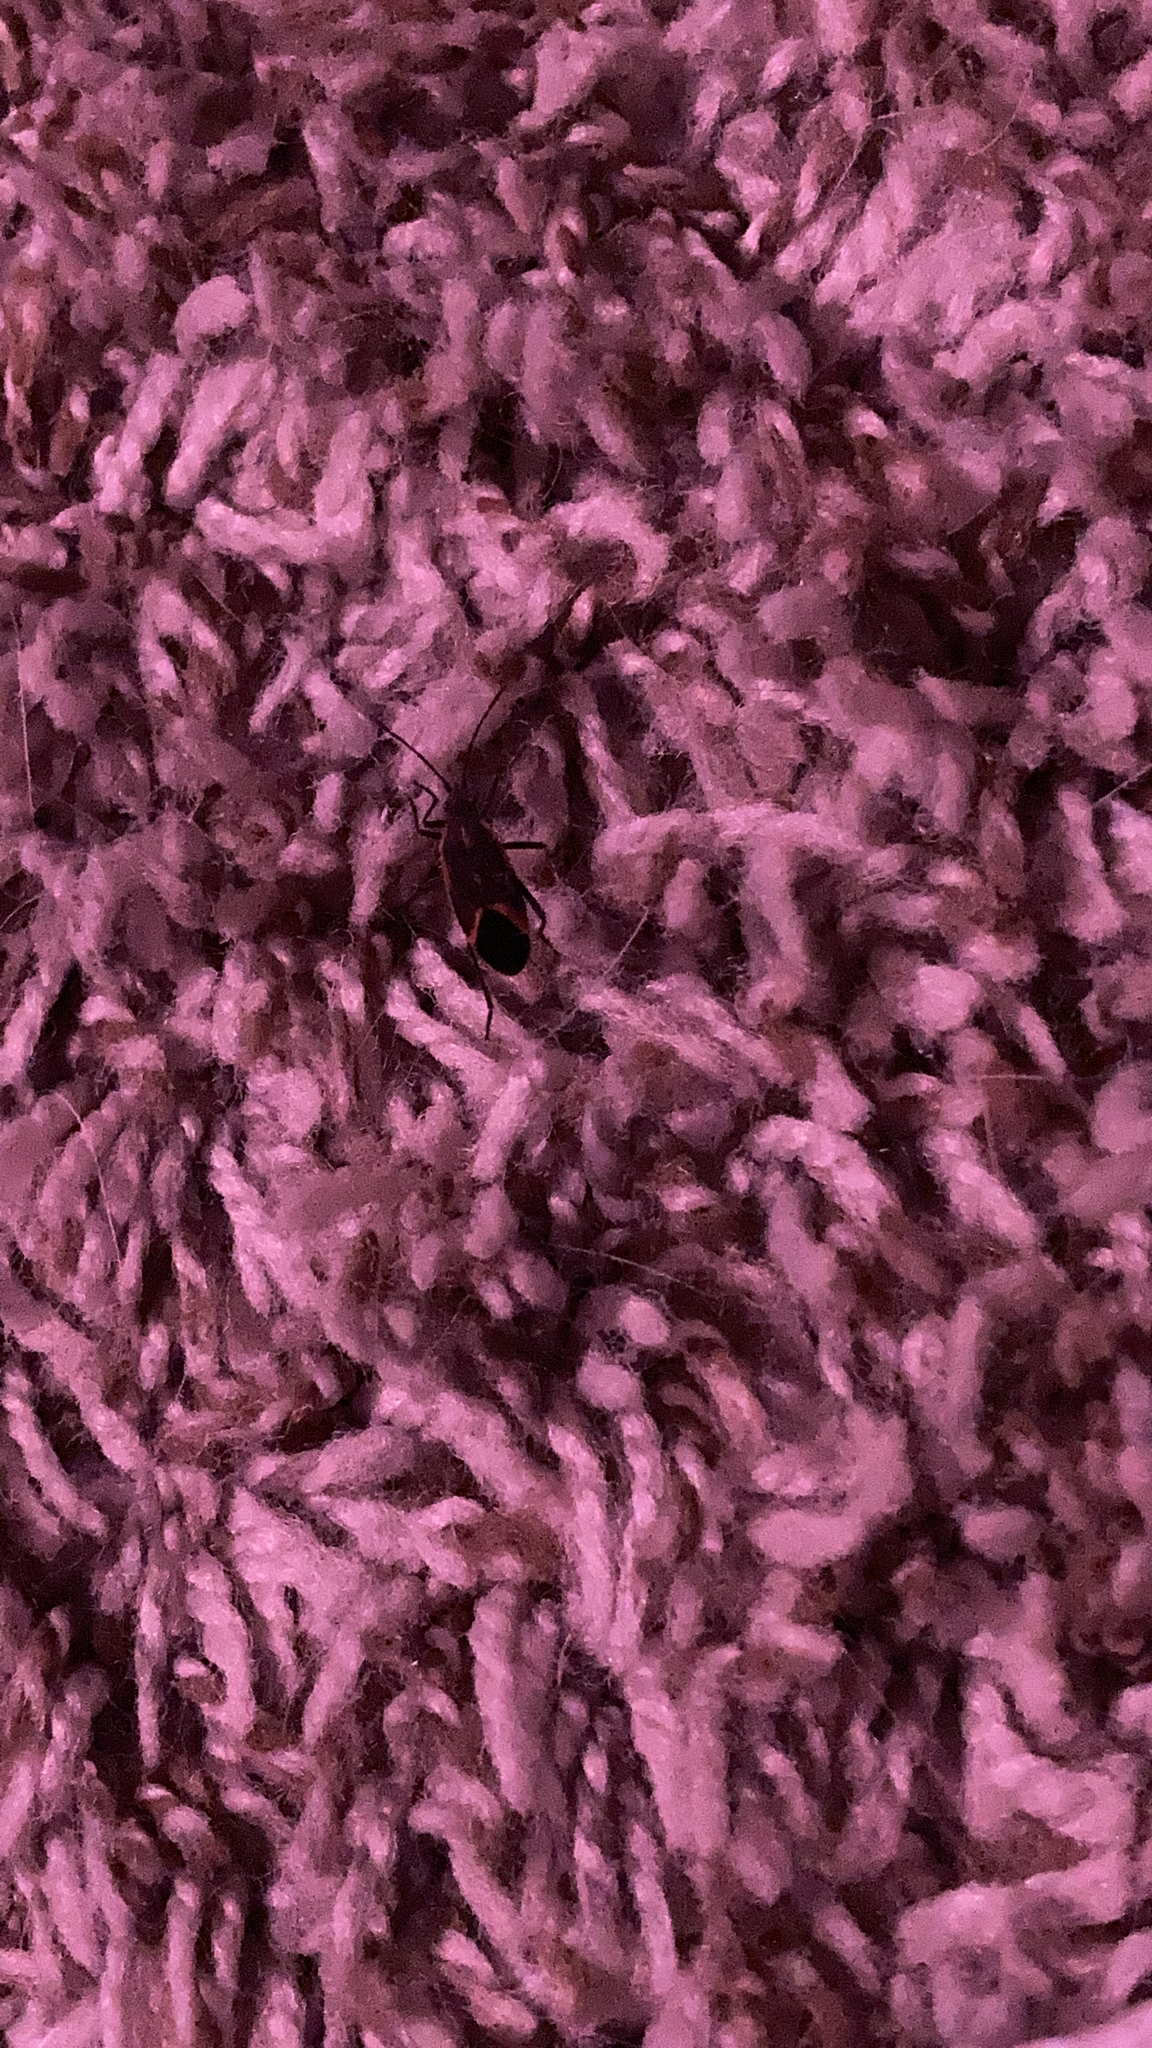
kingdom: Animalia
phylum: Arthropoda
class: Insecta
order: Hemiptera
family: Rhopalidae
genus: Boisea
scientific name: Boisea trivittata
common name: Boxelder bug
